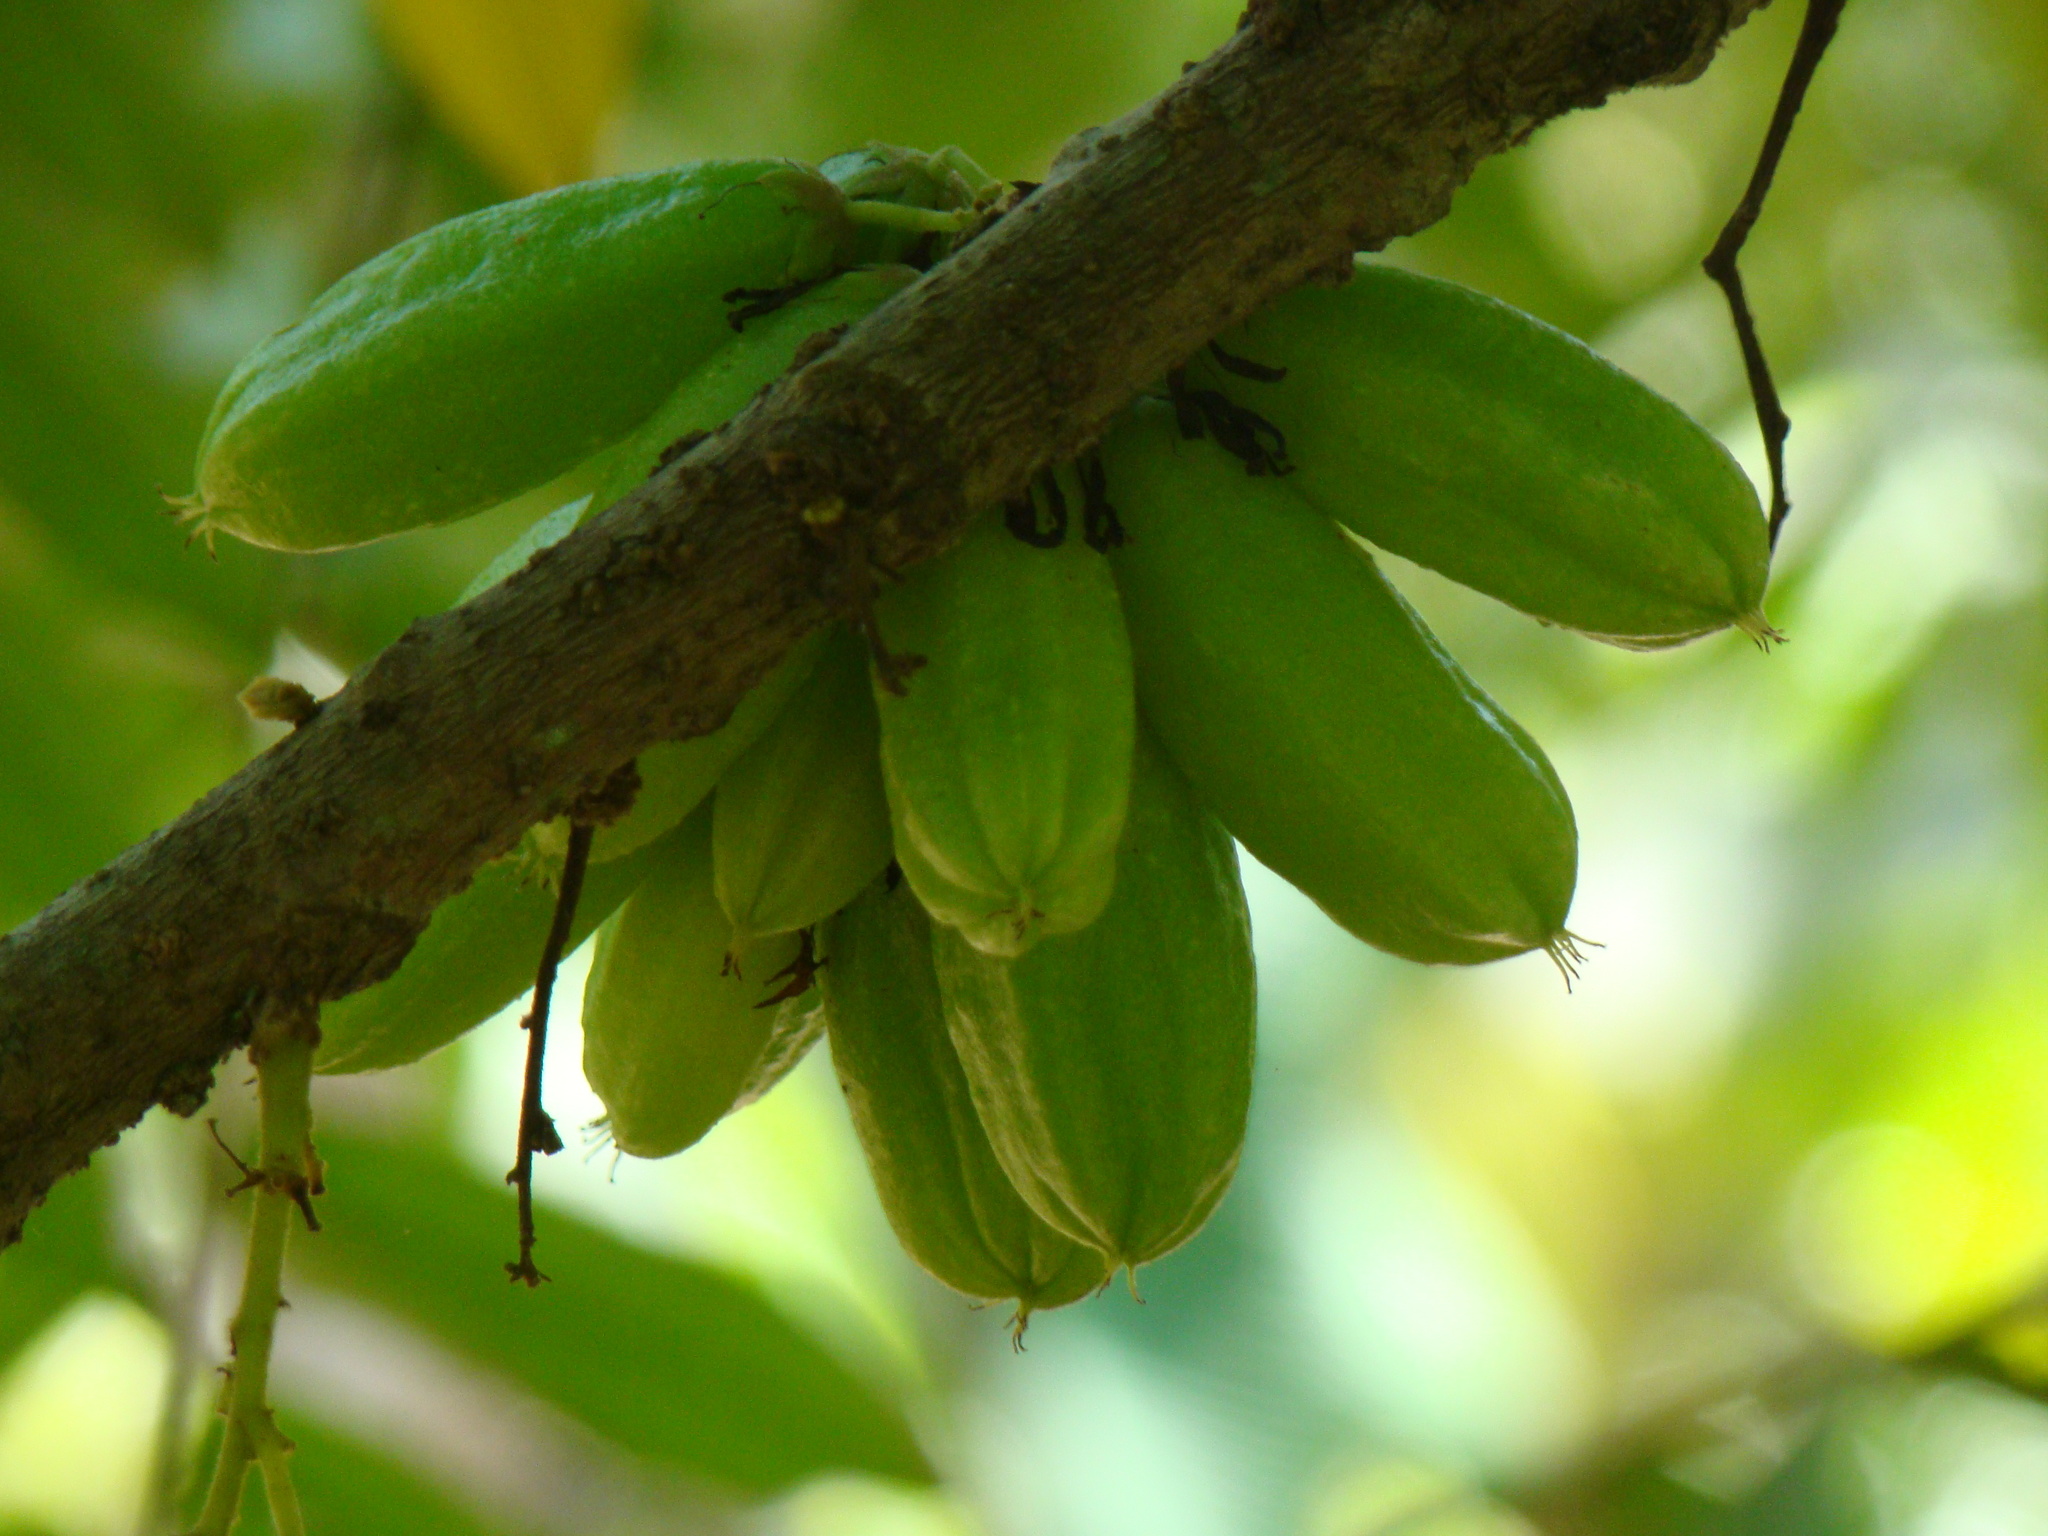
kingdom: Plantae
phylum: Tracheophyta
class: Magnoliopsida
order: Oxalidales
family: Oxalidaceae
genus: Averrhoa
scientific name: Averrhoa bilimbi
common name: Bilimbi
